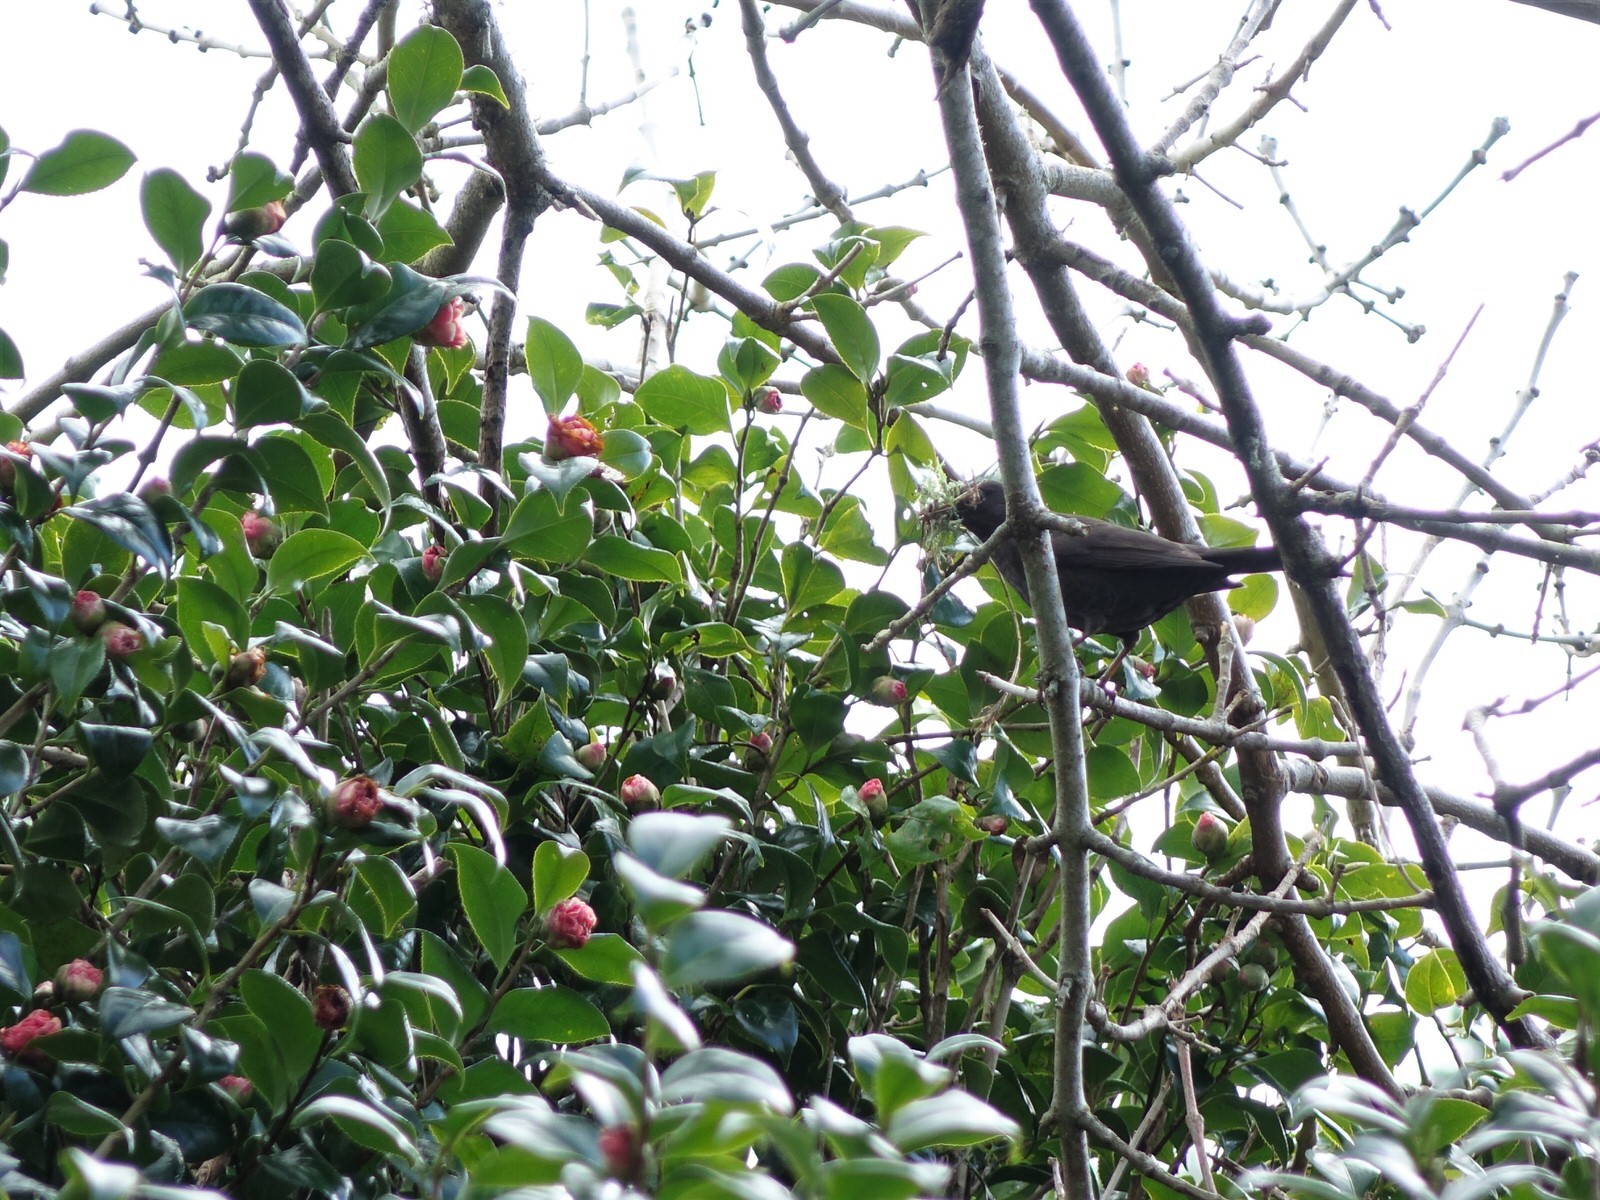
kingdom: Animalia
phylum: Chordata
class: Aves
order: Passeriformes
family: Turdidae
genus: Turdus
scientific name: Turdus merula
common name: Common blackbird
